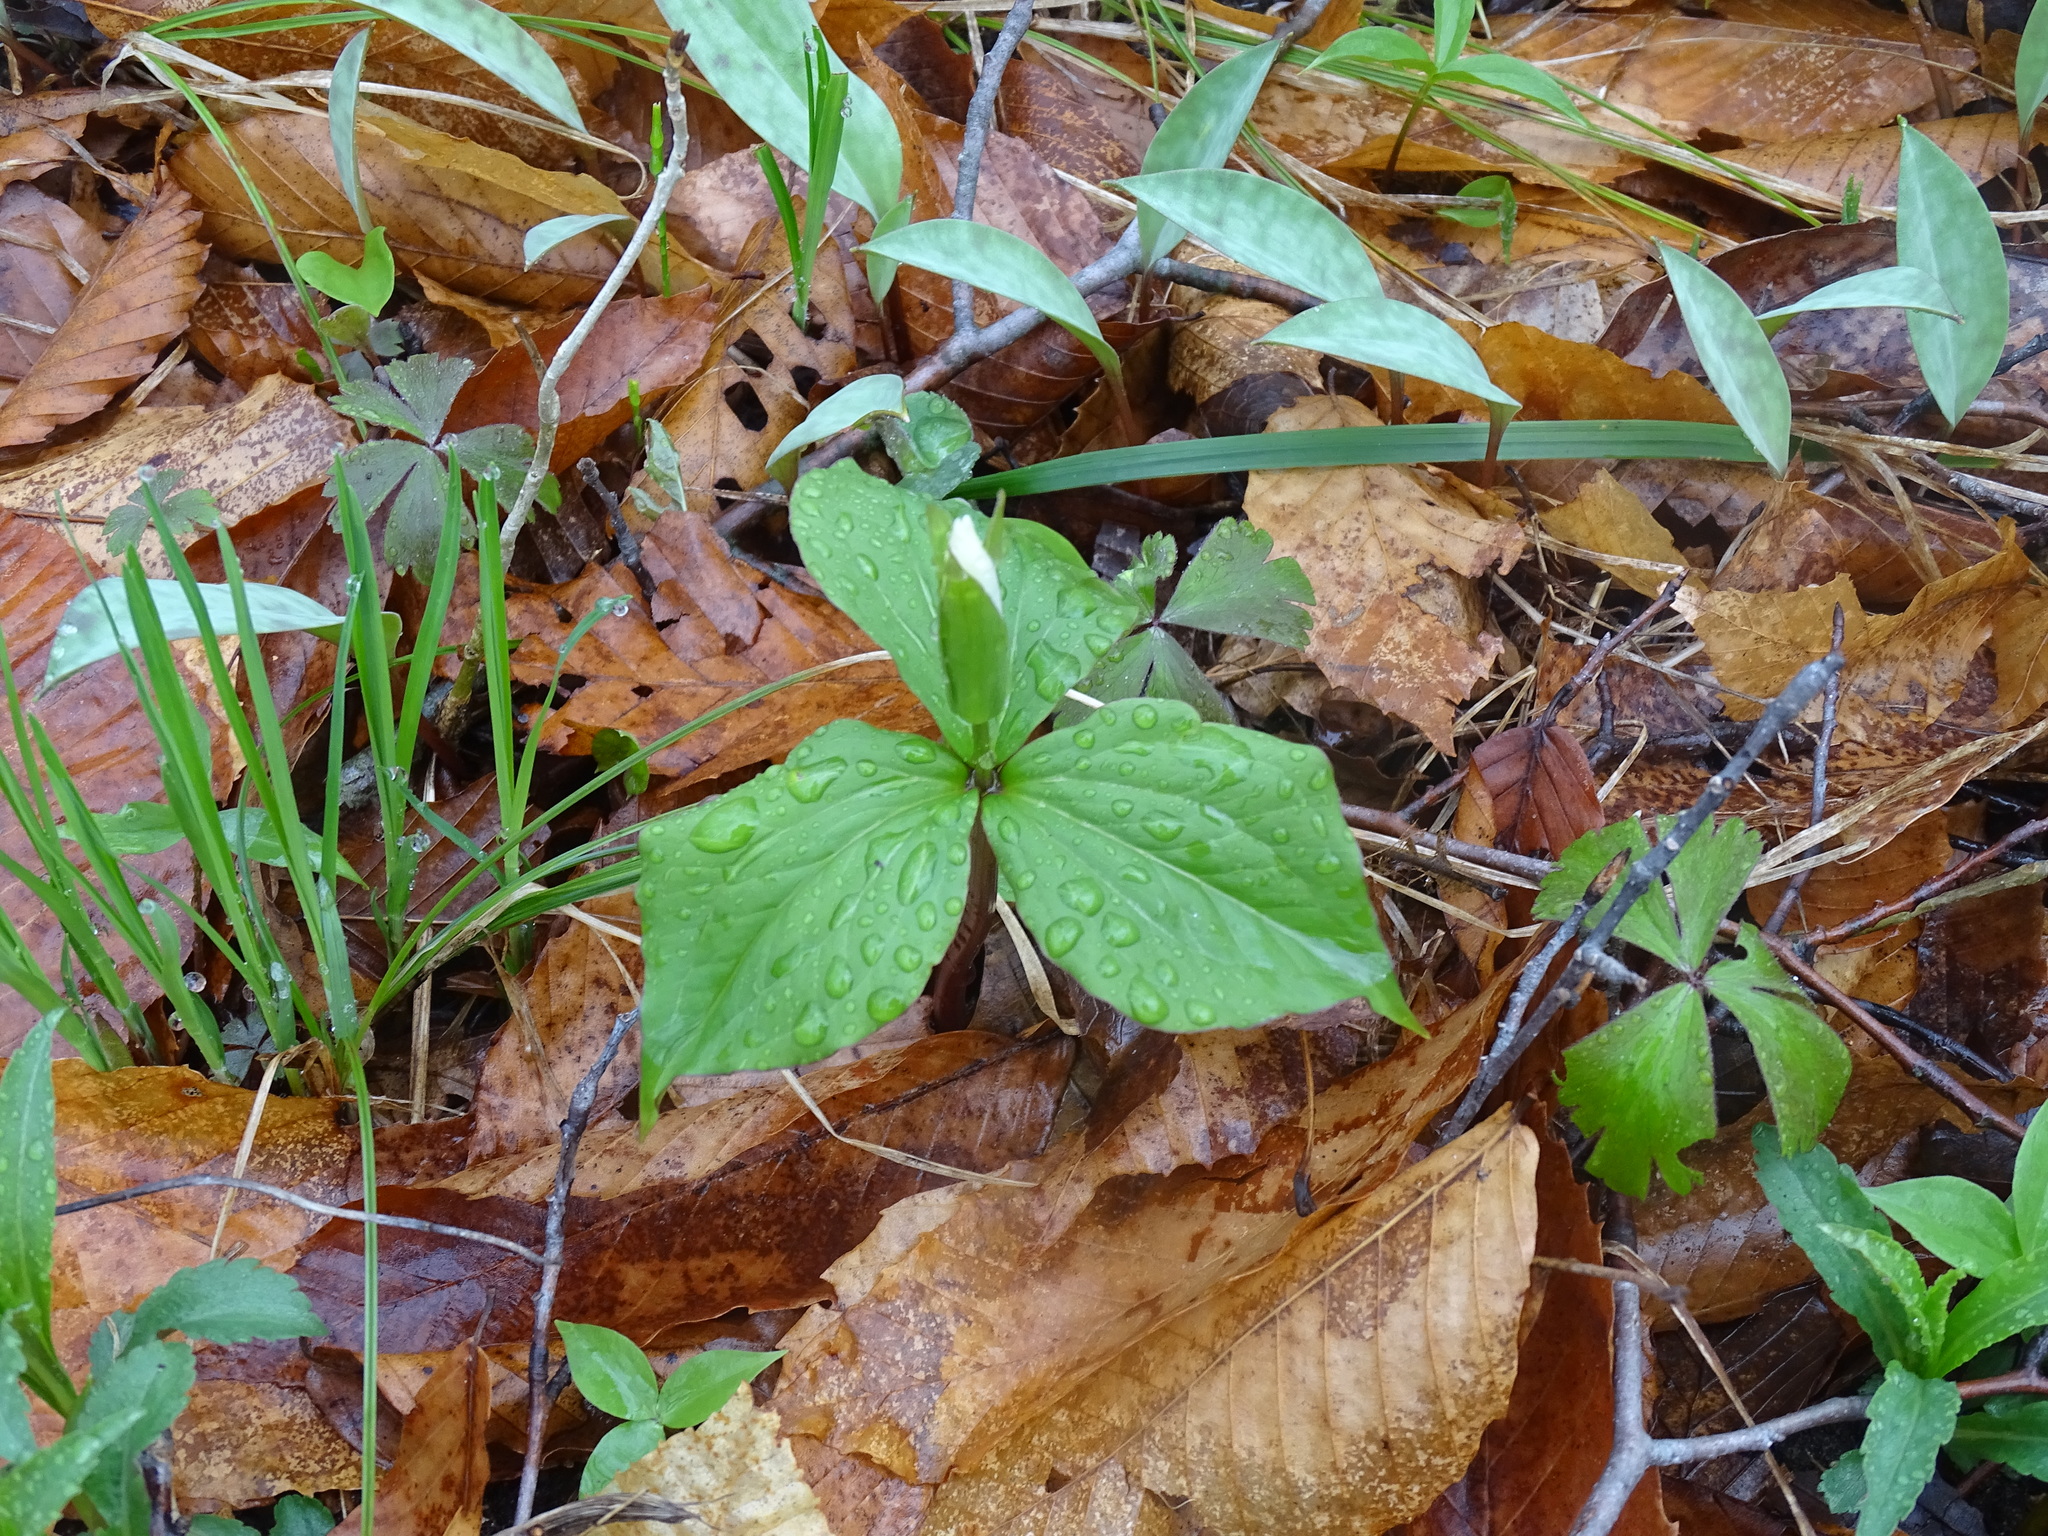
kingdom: Plantae
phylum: Tracheophyta
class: Liliopsida
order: Liliales
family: Melanthiaceae
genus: Trillium
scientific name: Trillium grandiflorum
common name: Great white trillium
